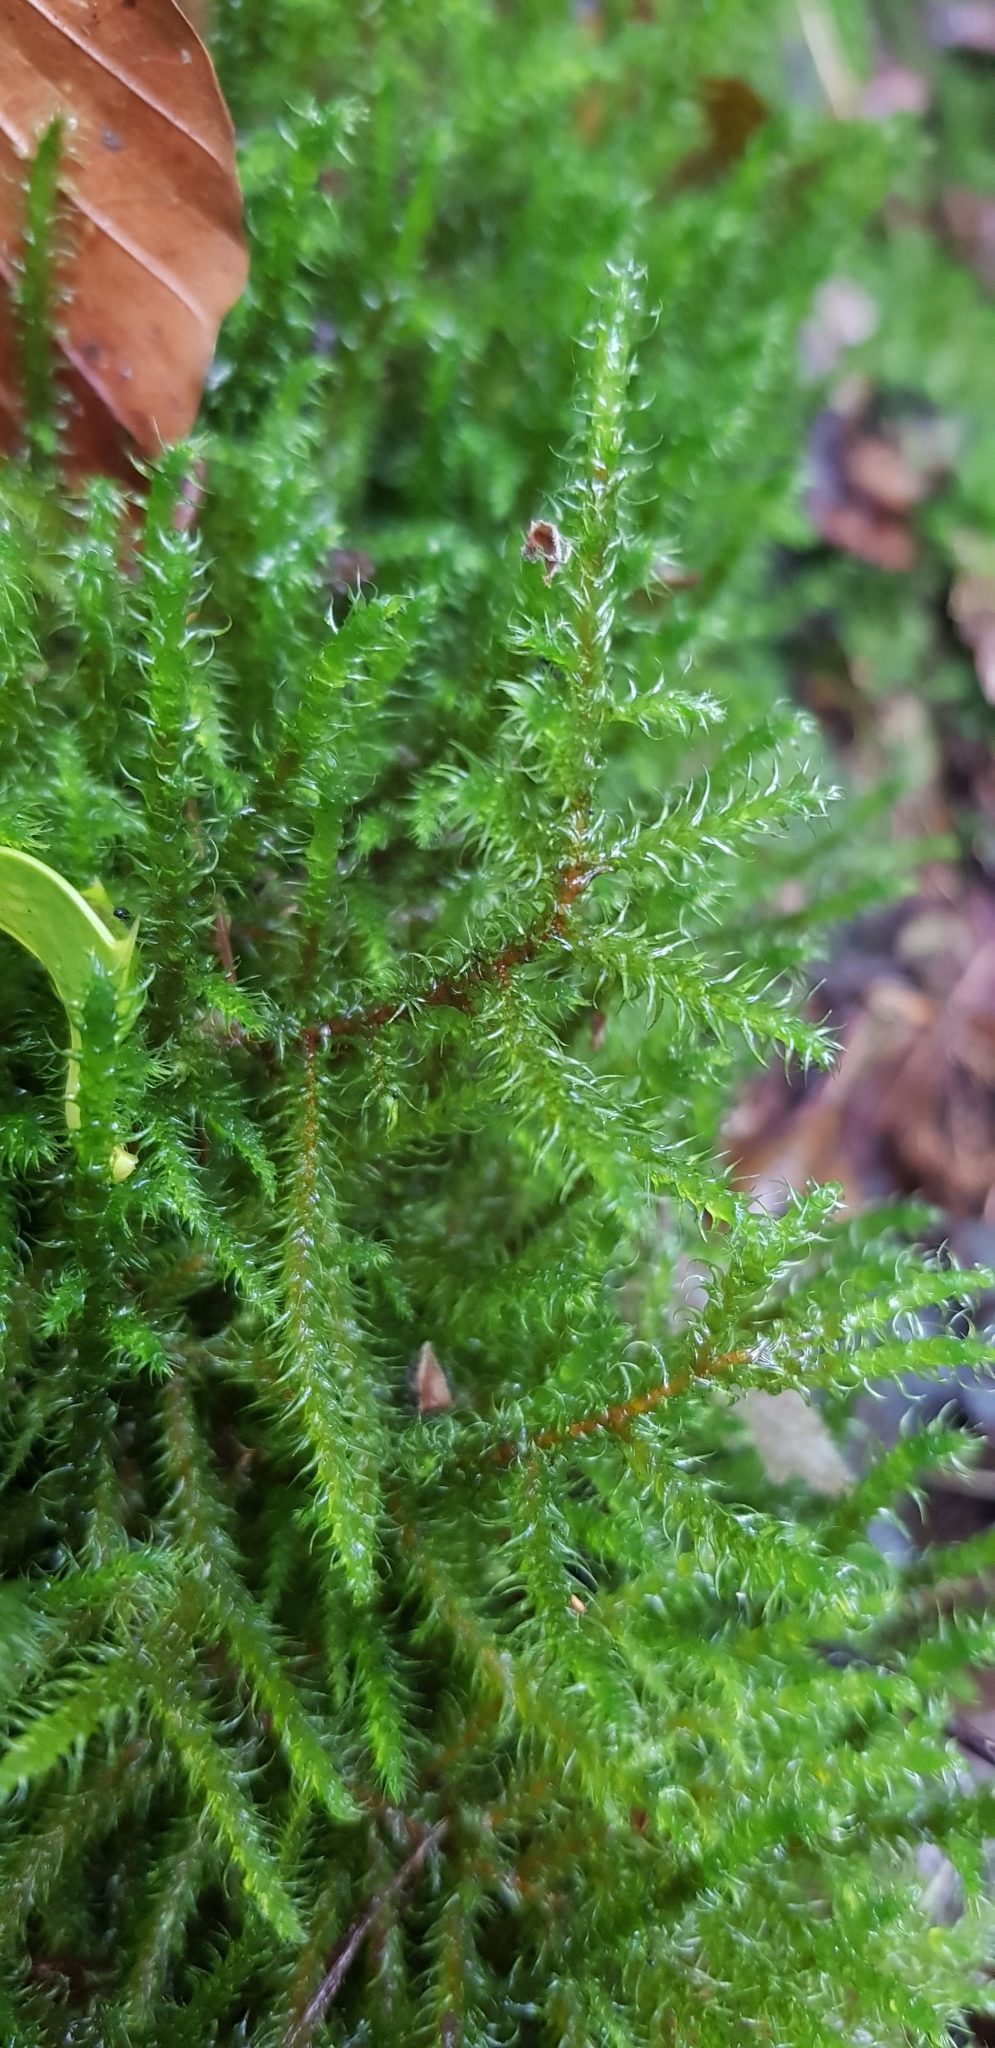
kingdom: Plantae
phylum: Bryophyta
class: Bryopsida
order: Hypnales
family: Hylocomiaceae
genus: Rhytidiadelphus
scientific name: Rhytidiadelphus loreus
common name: Lanky moss
